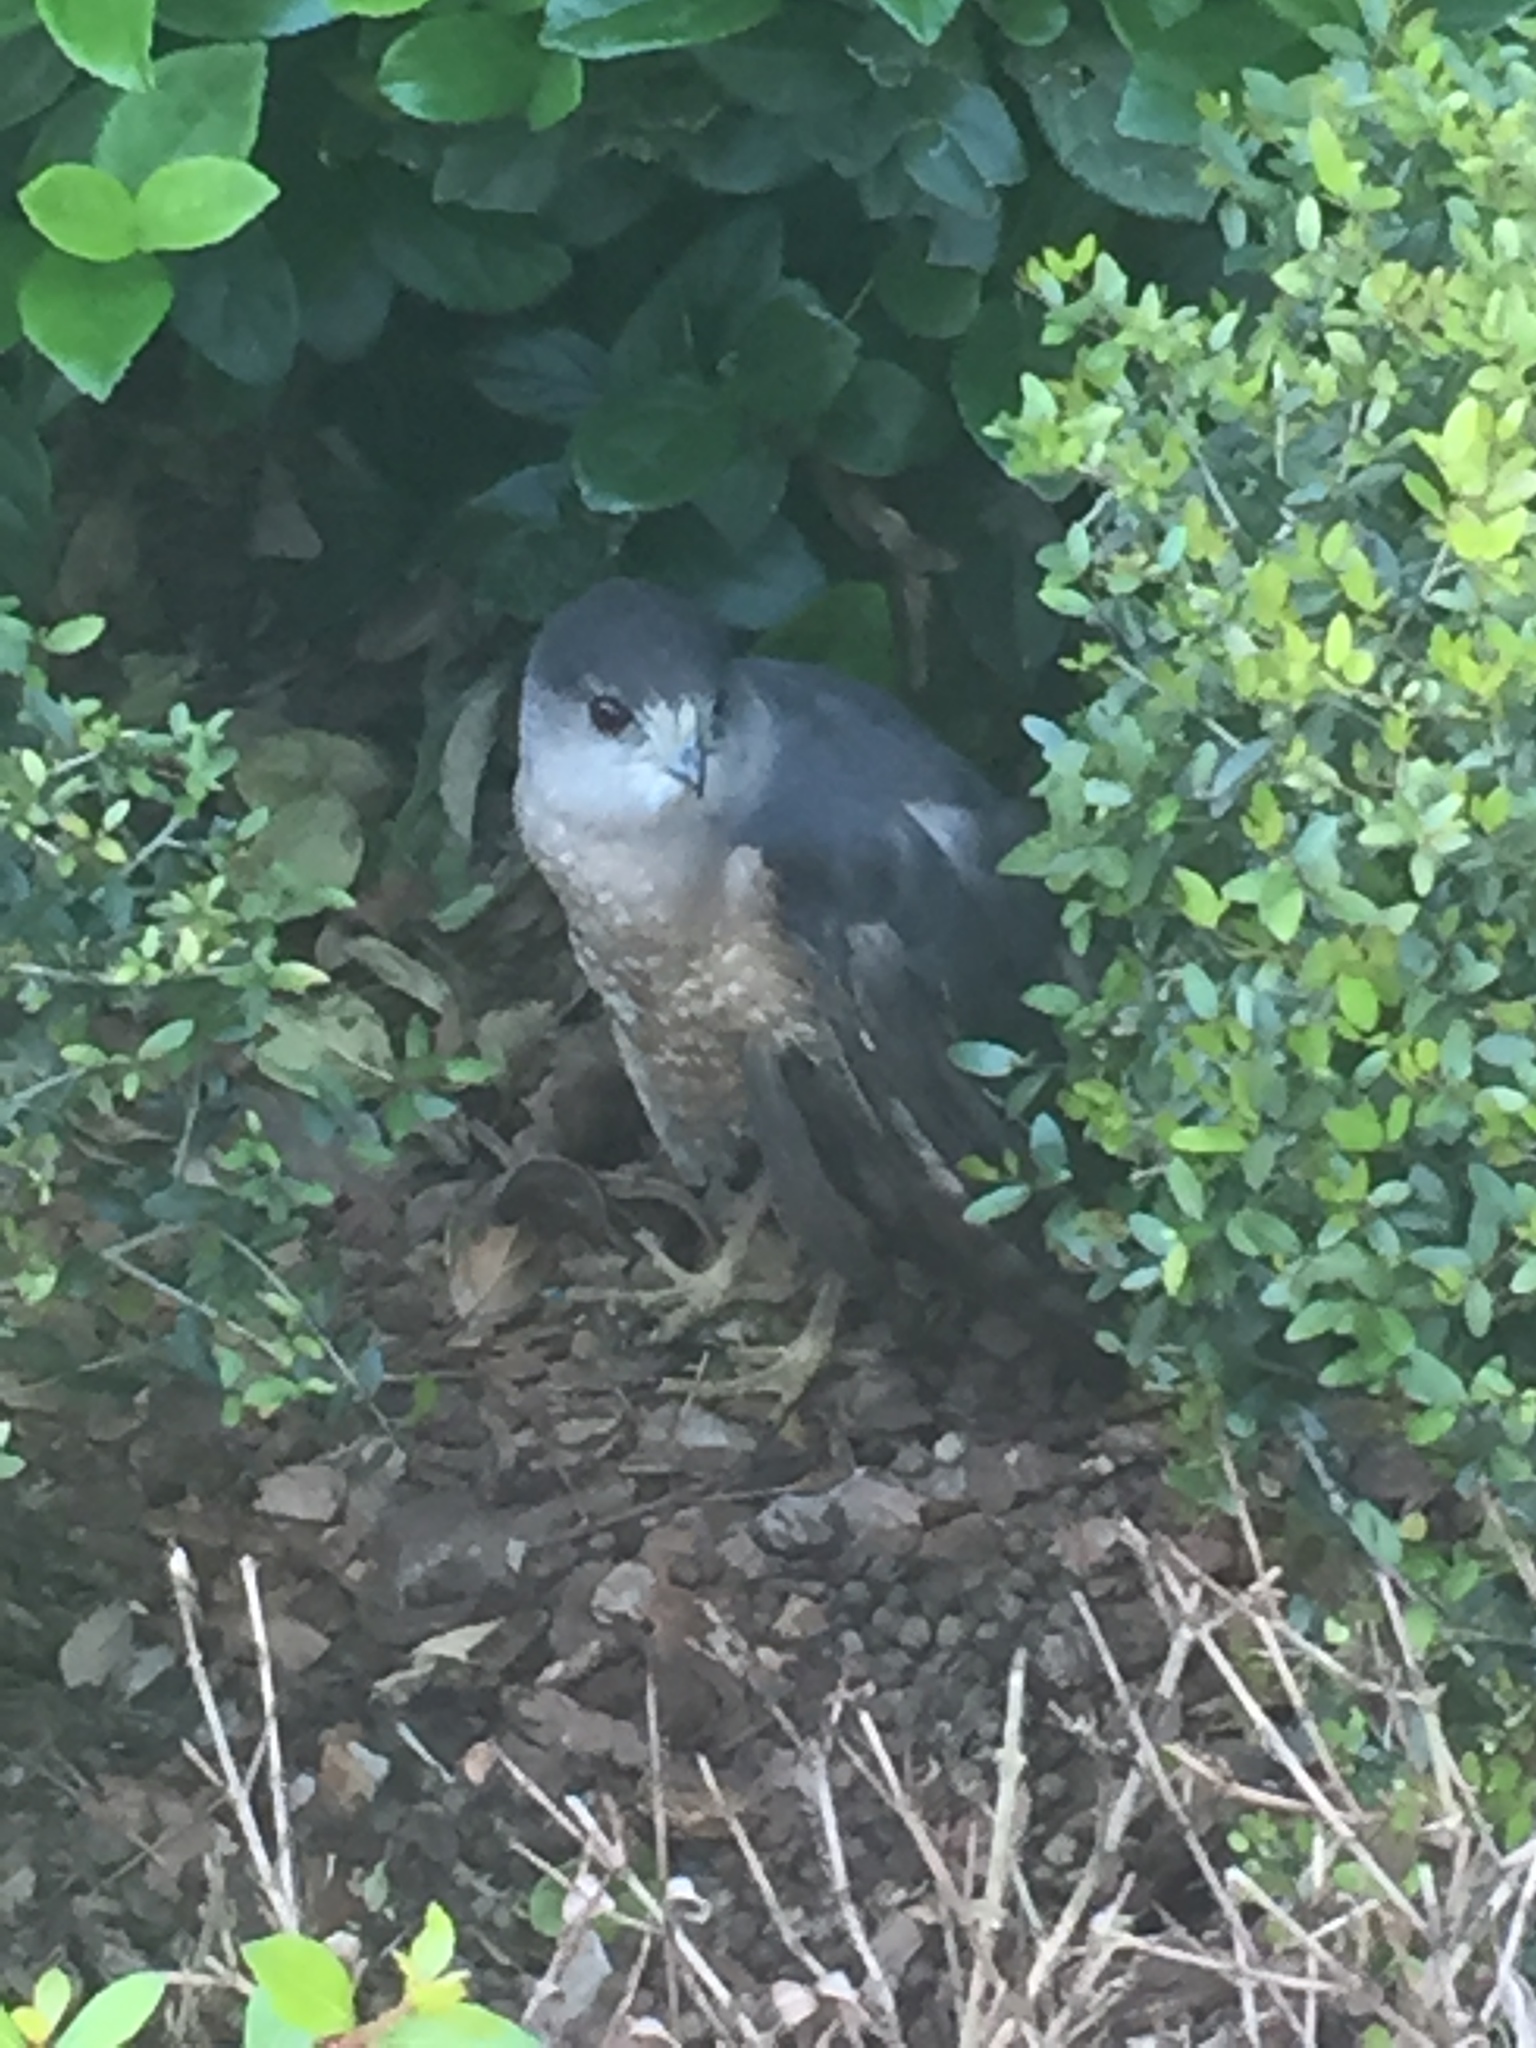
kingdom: Animalia
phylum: Chordata
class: Aves
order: Accipitriformes
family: Accipitridae
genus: Accipiter
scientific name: Accipiter cooperii
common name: Cooper's hawk
